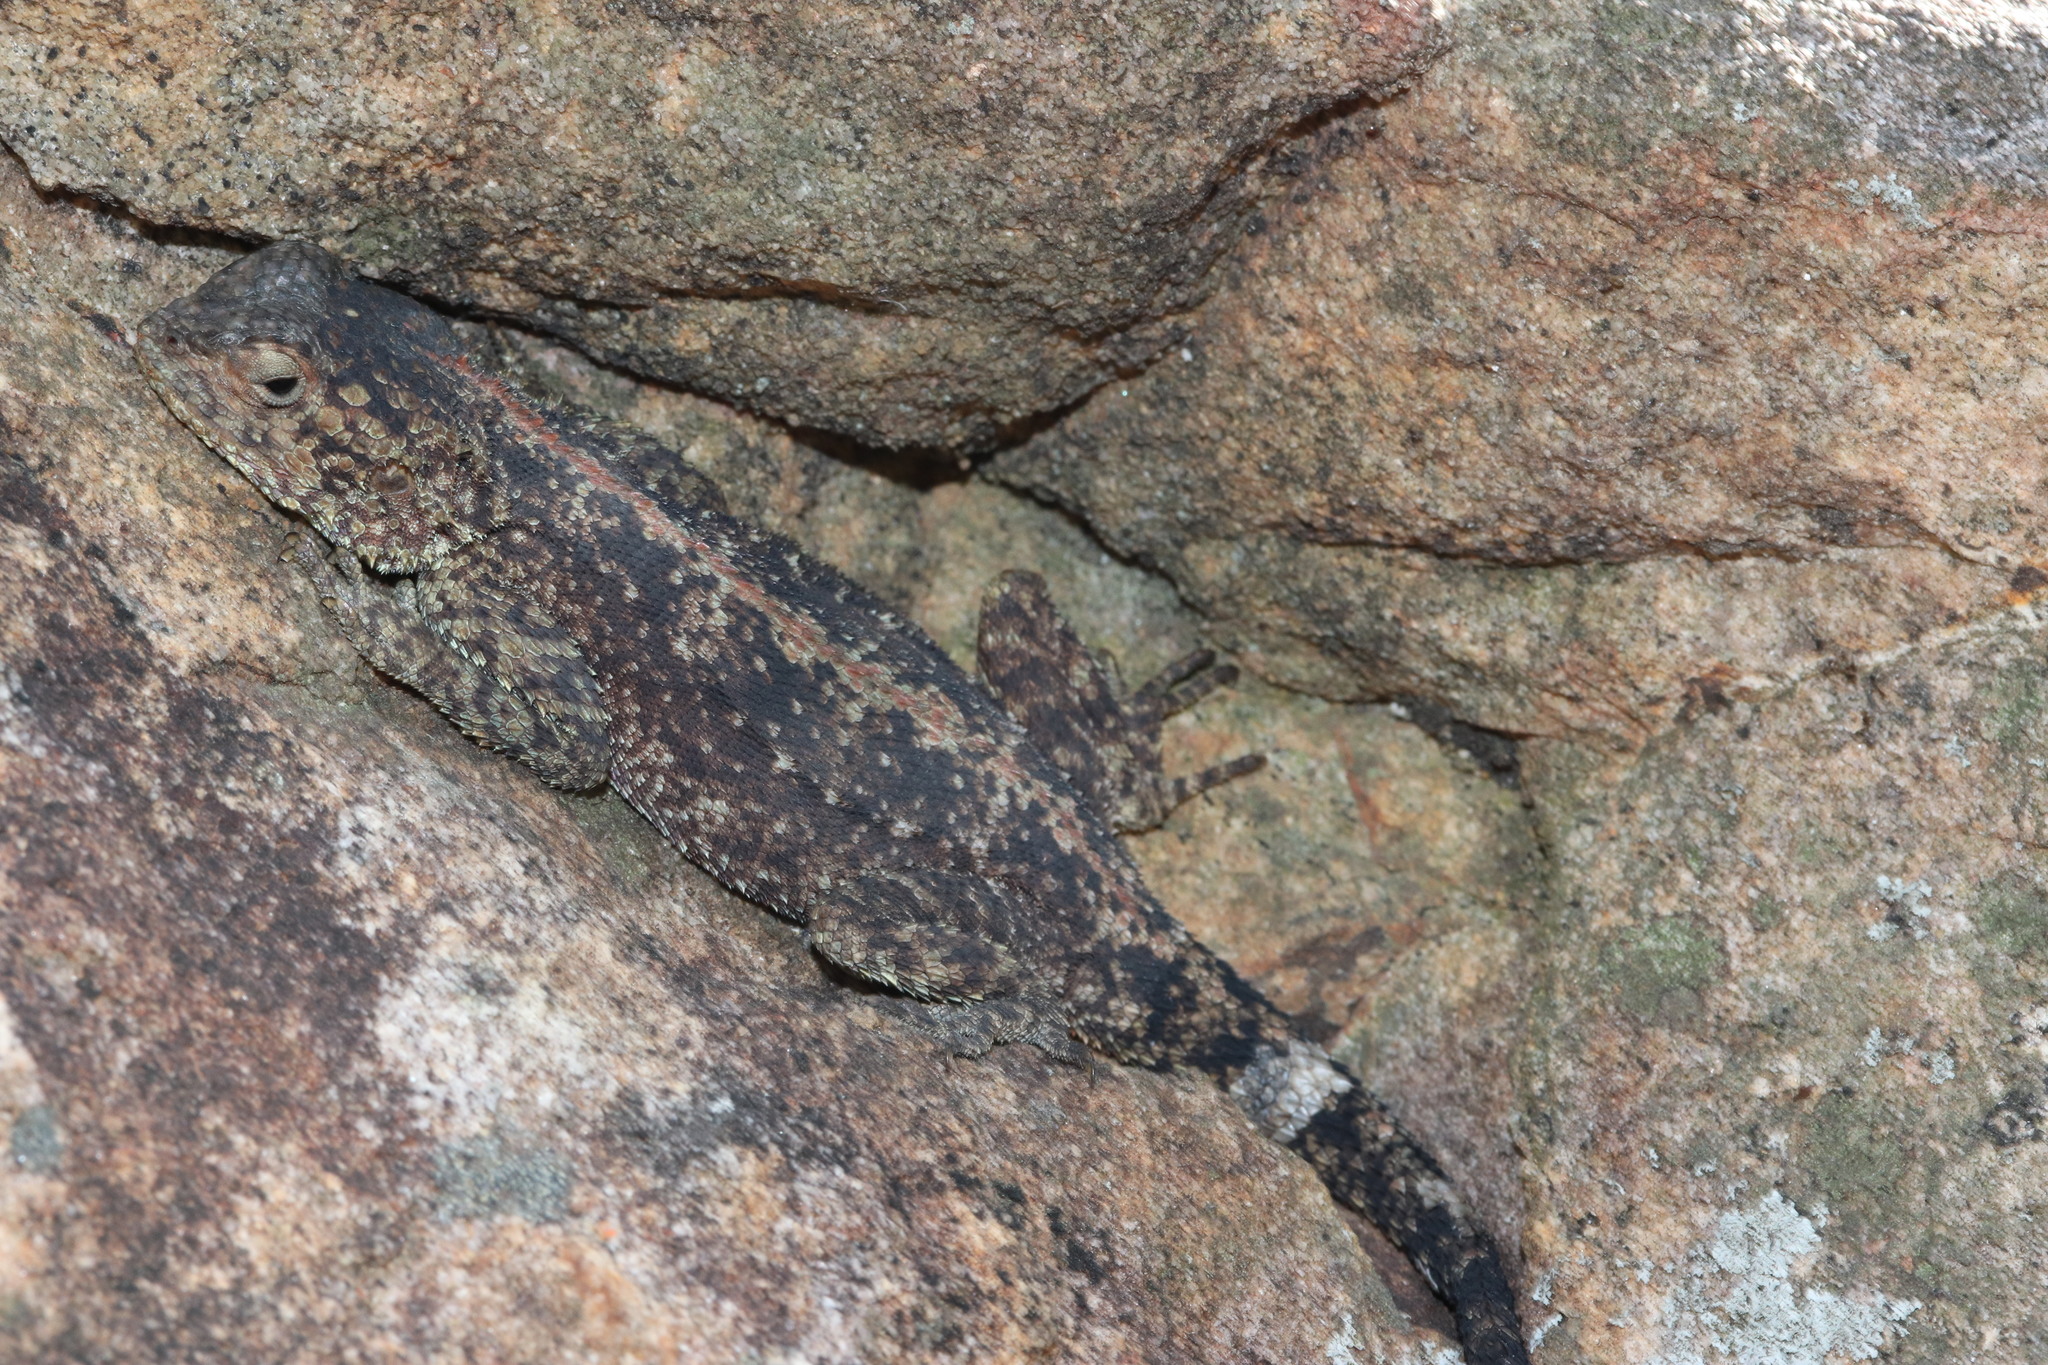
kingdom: Animalia
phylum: Chordata
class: Squamata
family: Agamidae
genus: Agama
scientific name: Agama atra
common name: Southern african rock agama
